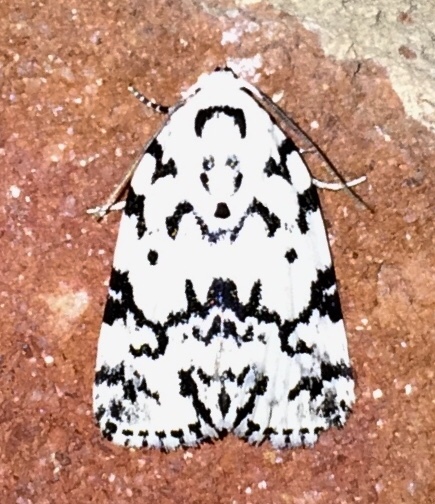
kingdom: Animalia
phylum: Arthropoda
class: Insecta
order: Lepidoptera
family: Noctuidae
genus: Polygrammate
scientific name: Polygrammate hebraeicum
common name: Hebrew moth
